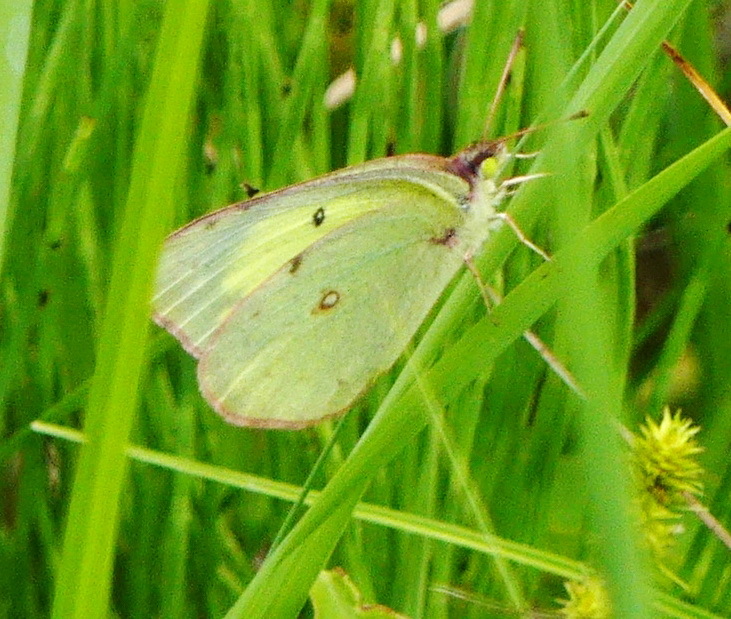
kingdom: Animalia
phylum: Arthropoda
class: Insecta
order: Lepidoptera
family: Pieridae
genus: Colias
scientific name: Colias philodice
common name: Clouded sulphur
